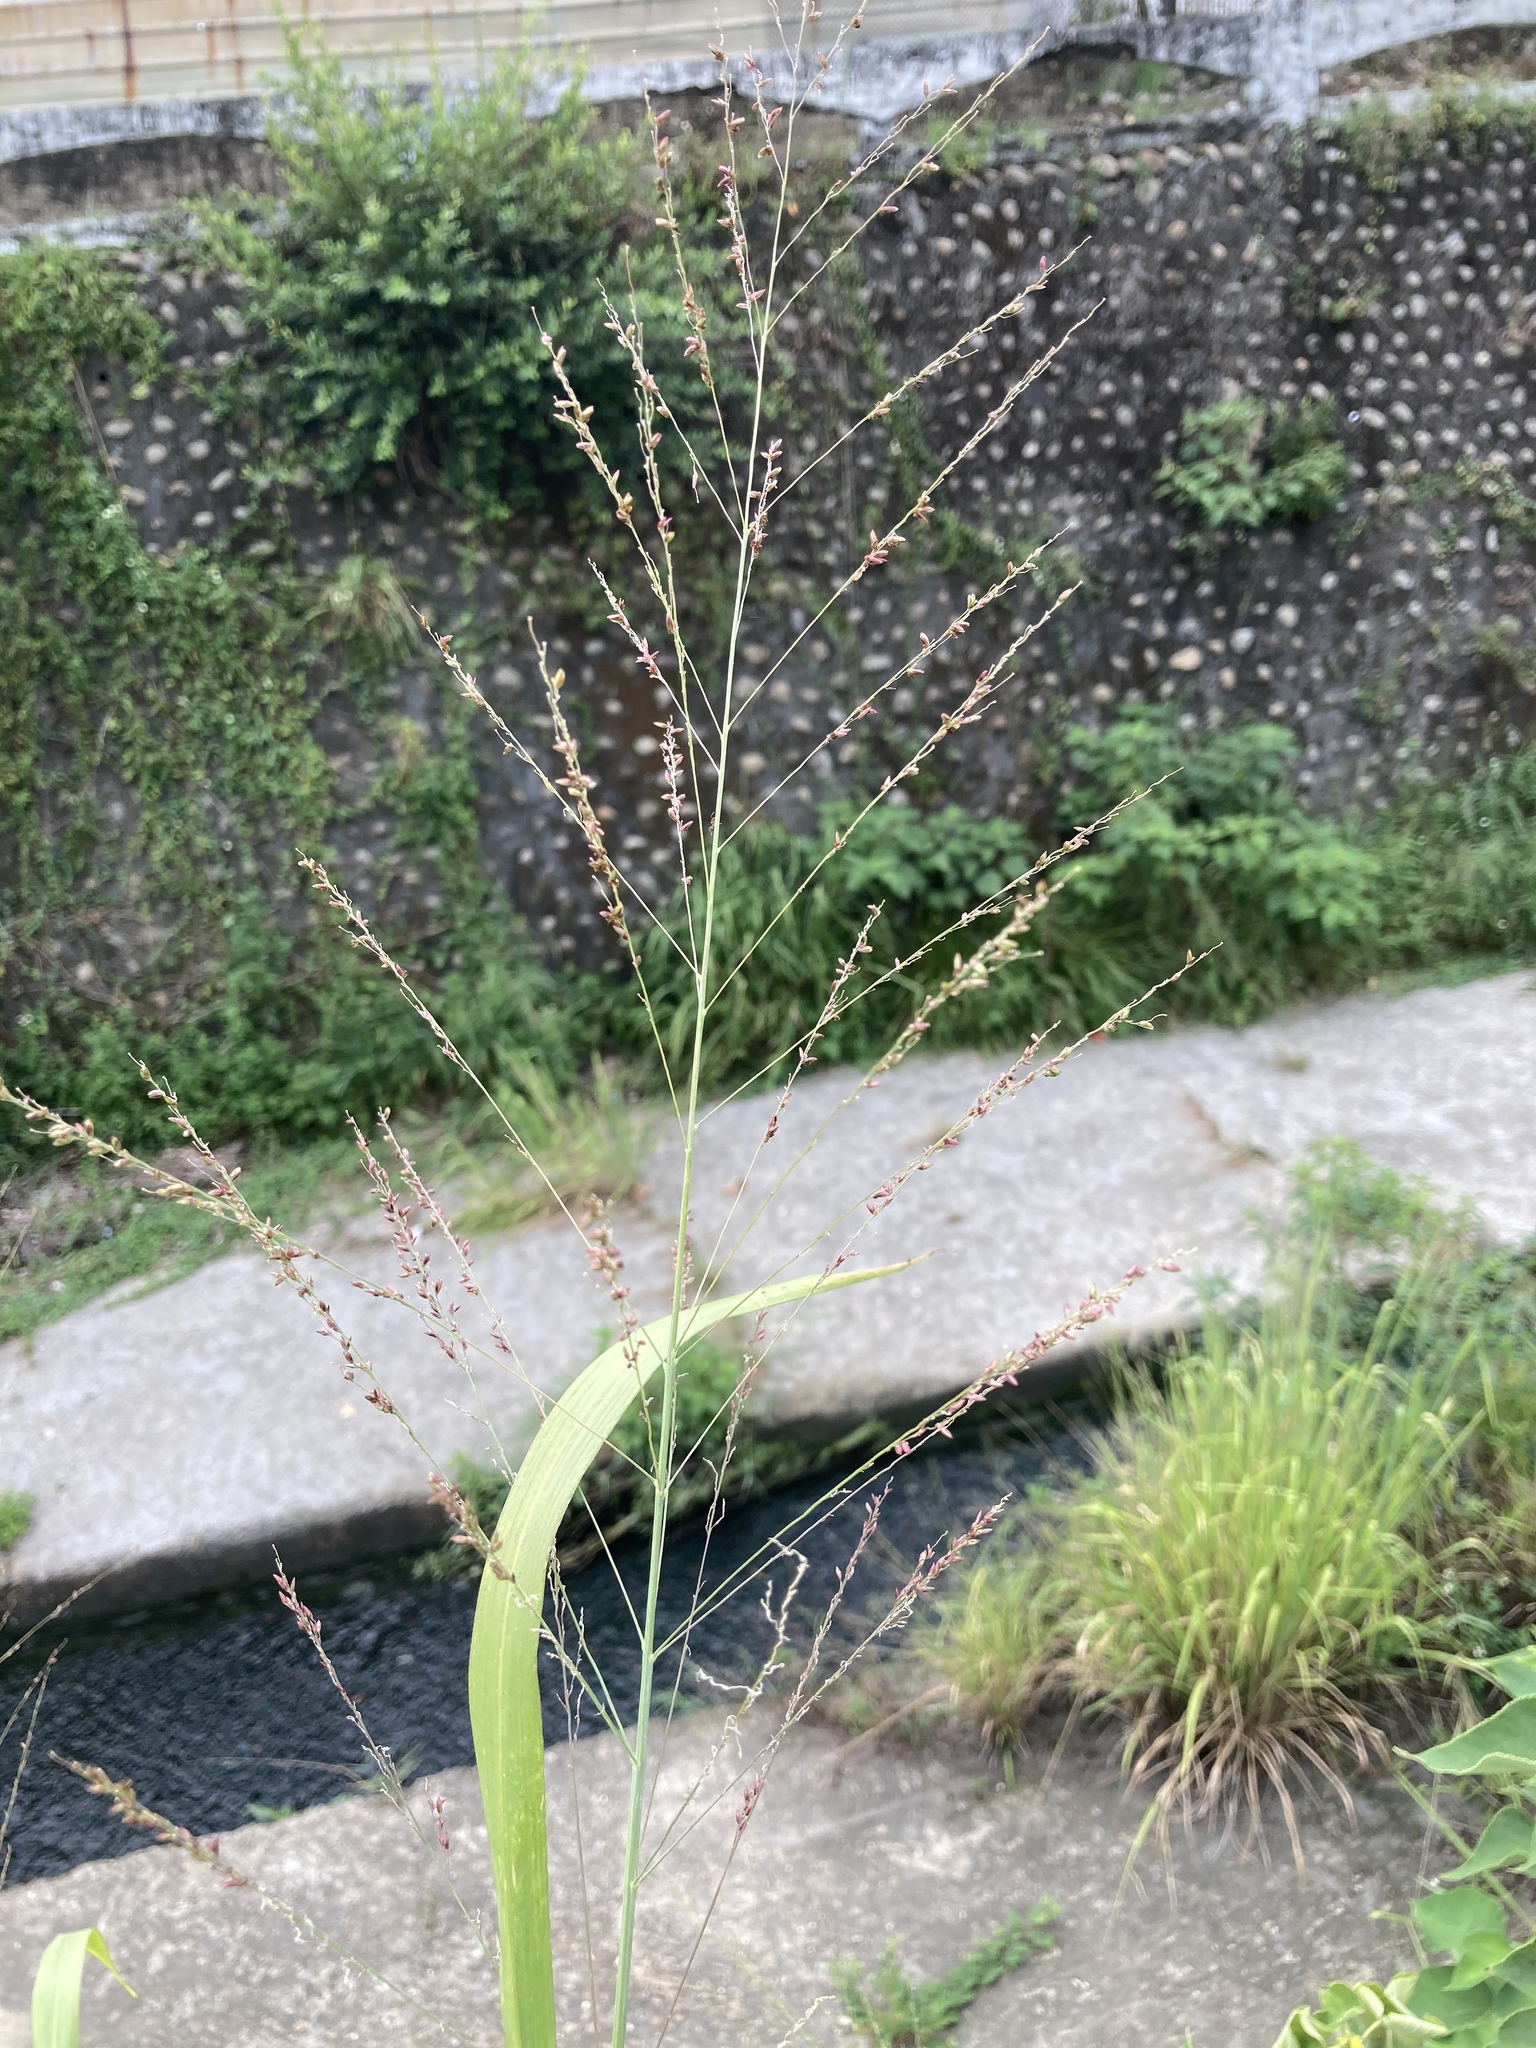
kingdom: Plantae
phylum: Tracheophyta
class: Liliopsida
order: Poales
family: Poaceae
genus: Megathyrsus
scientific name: Megathyrsus maximus
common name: Guineagrass
